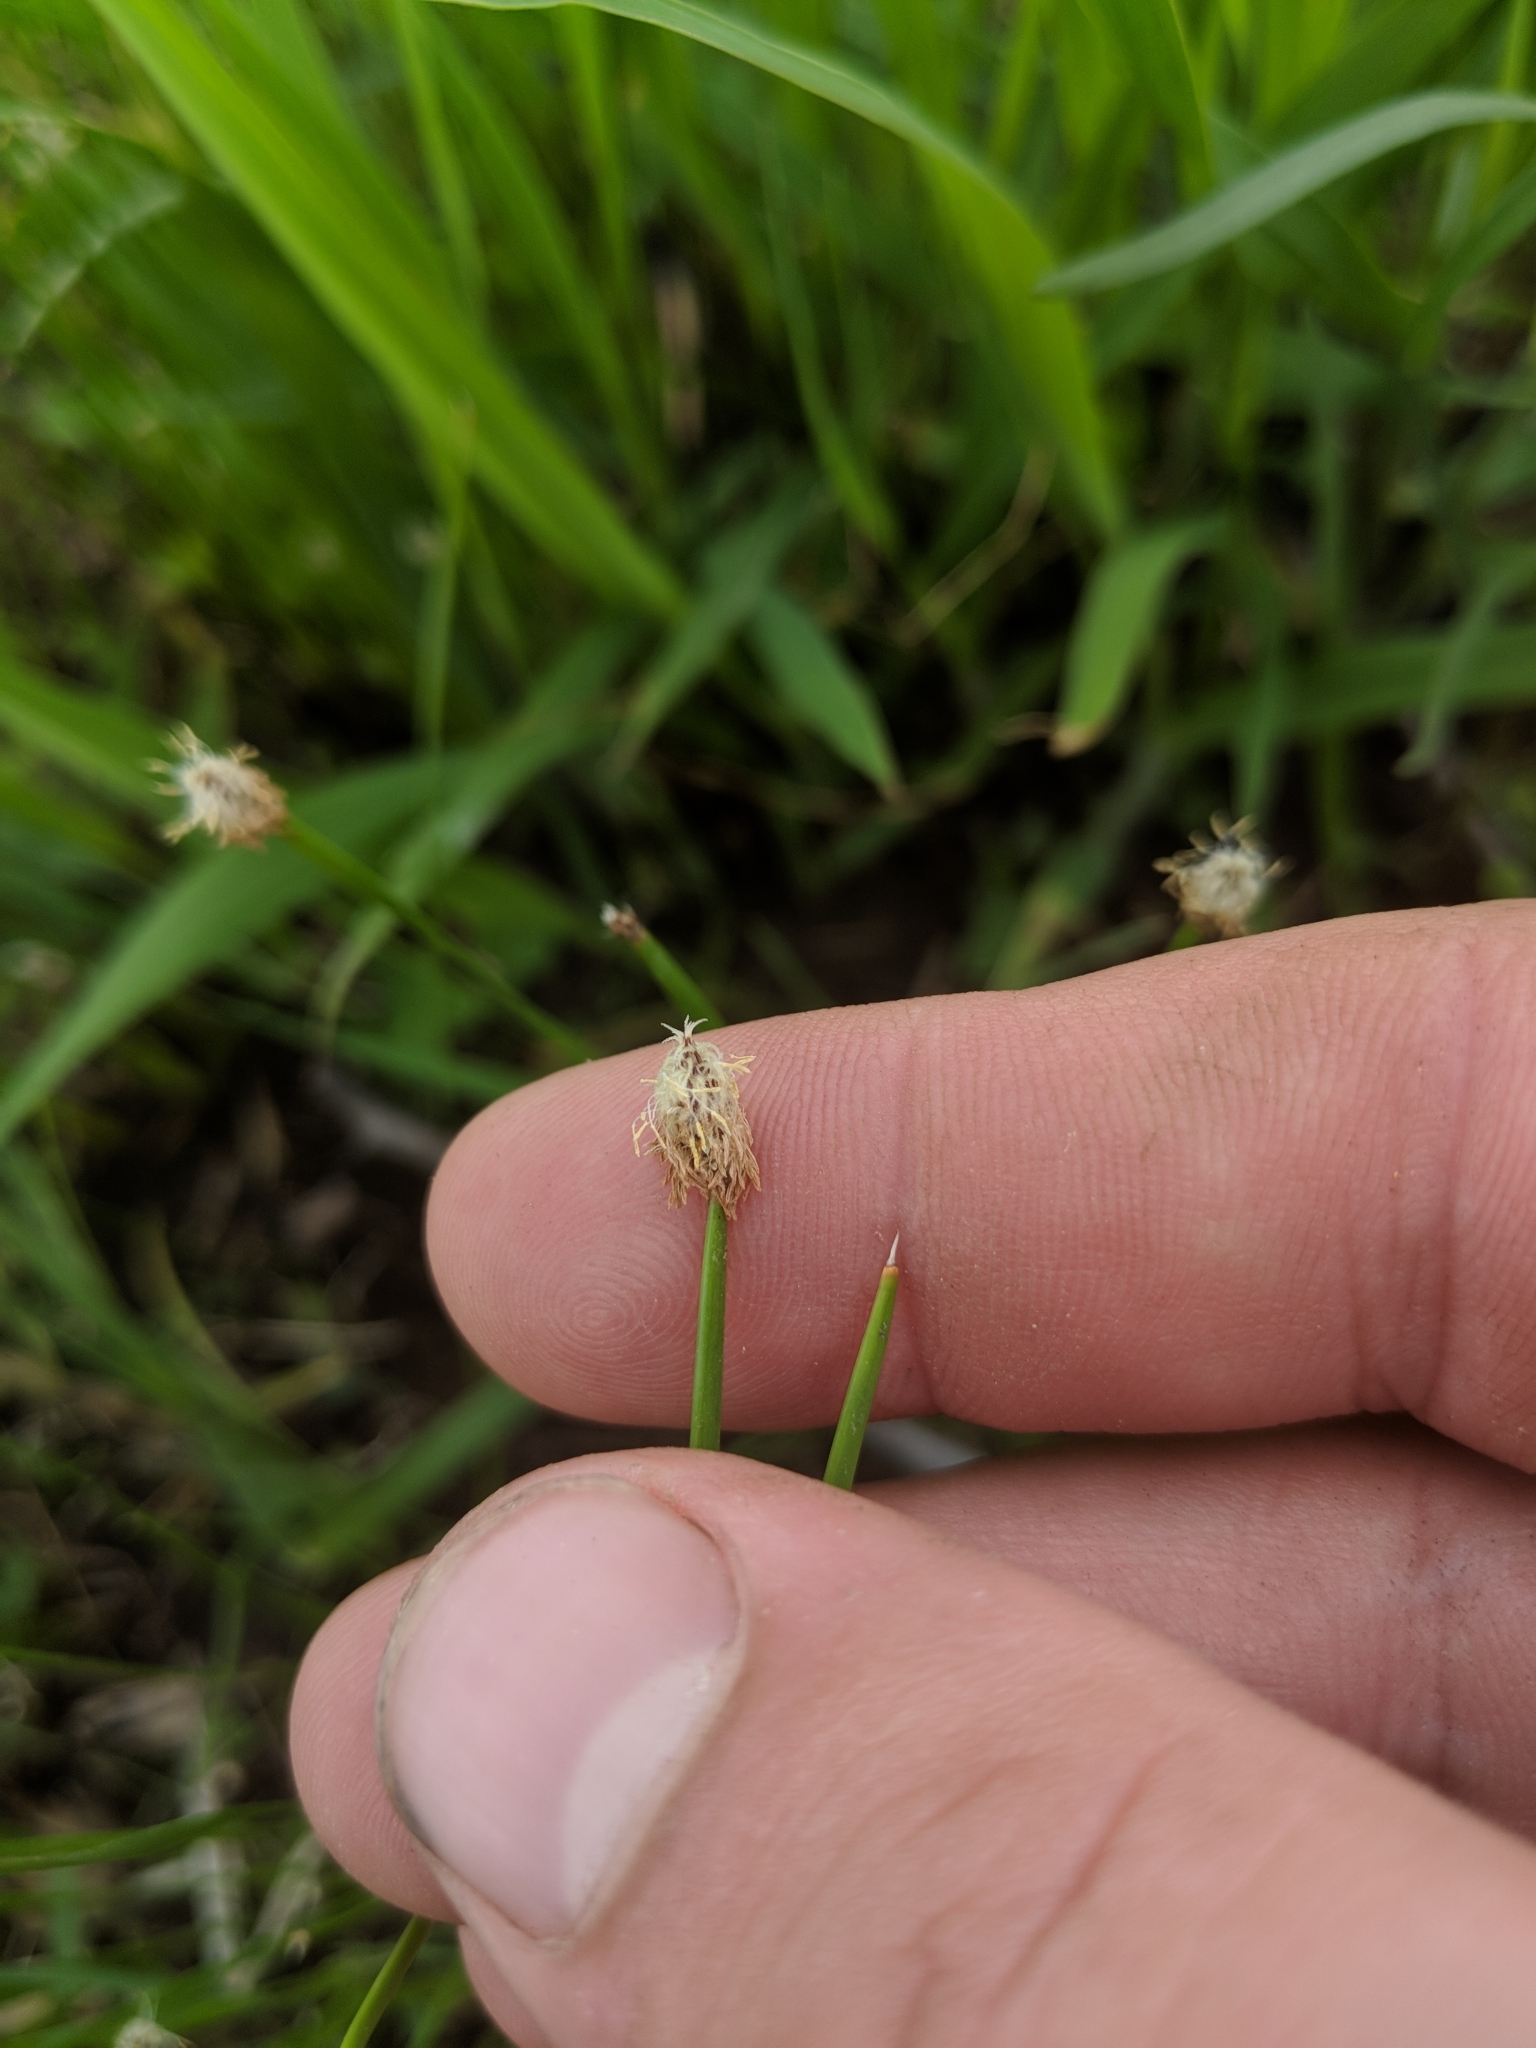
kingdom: Plantae
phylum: Tracheophyta
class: Liliopsida
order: Poales
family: Cyperaceae
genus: Eleocharis
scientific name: Eleocharis compressa
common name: Flat-stem spike-rush
